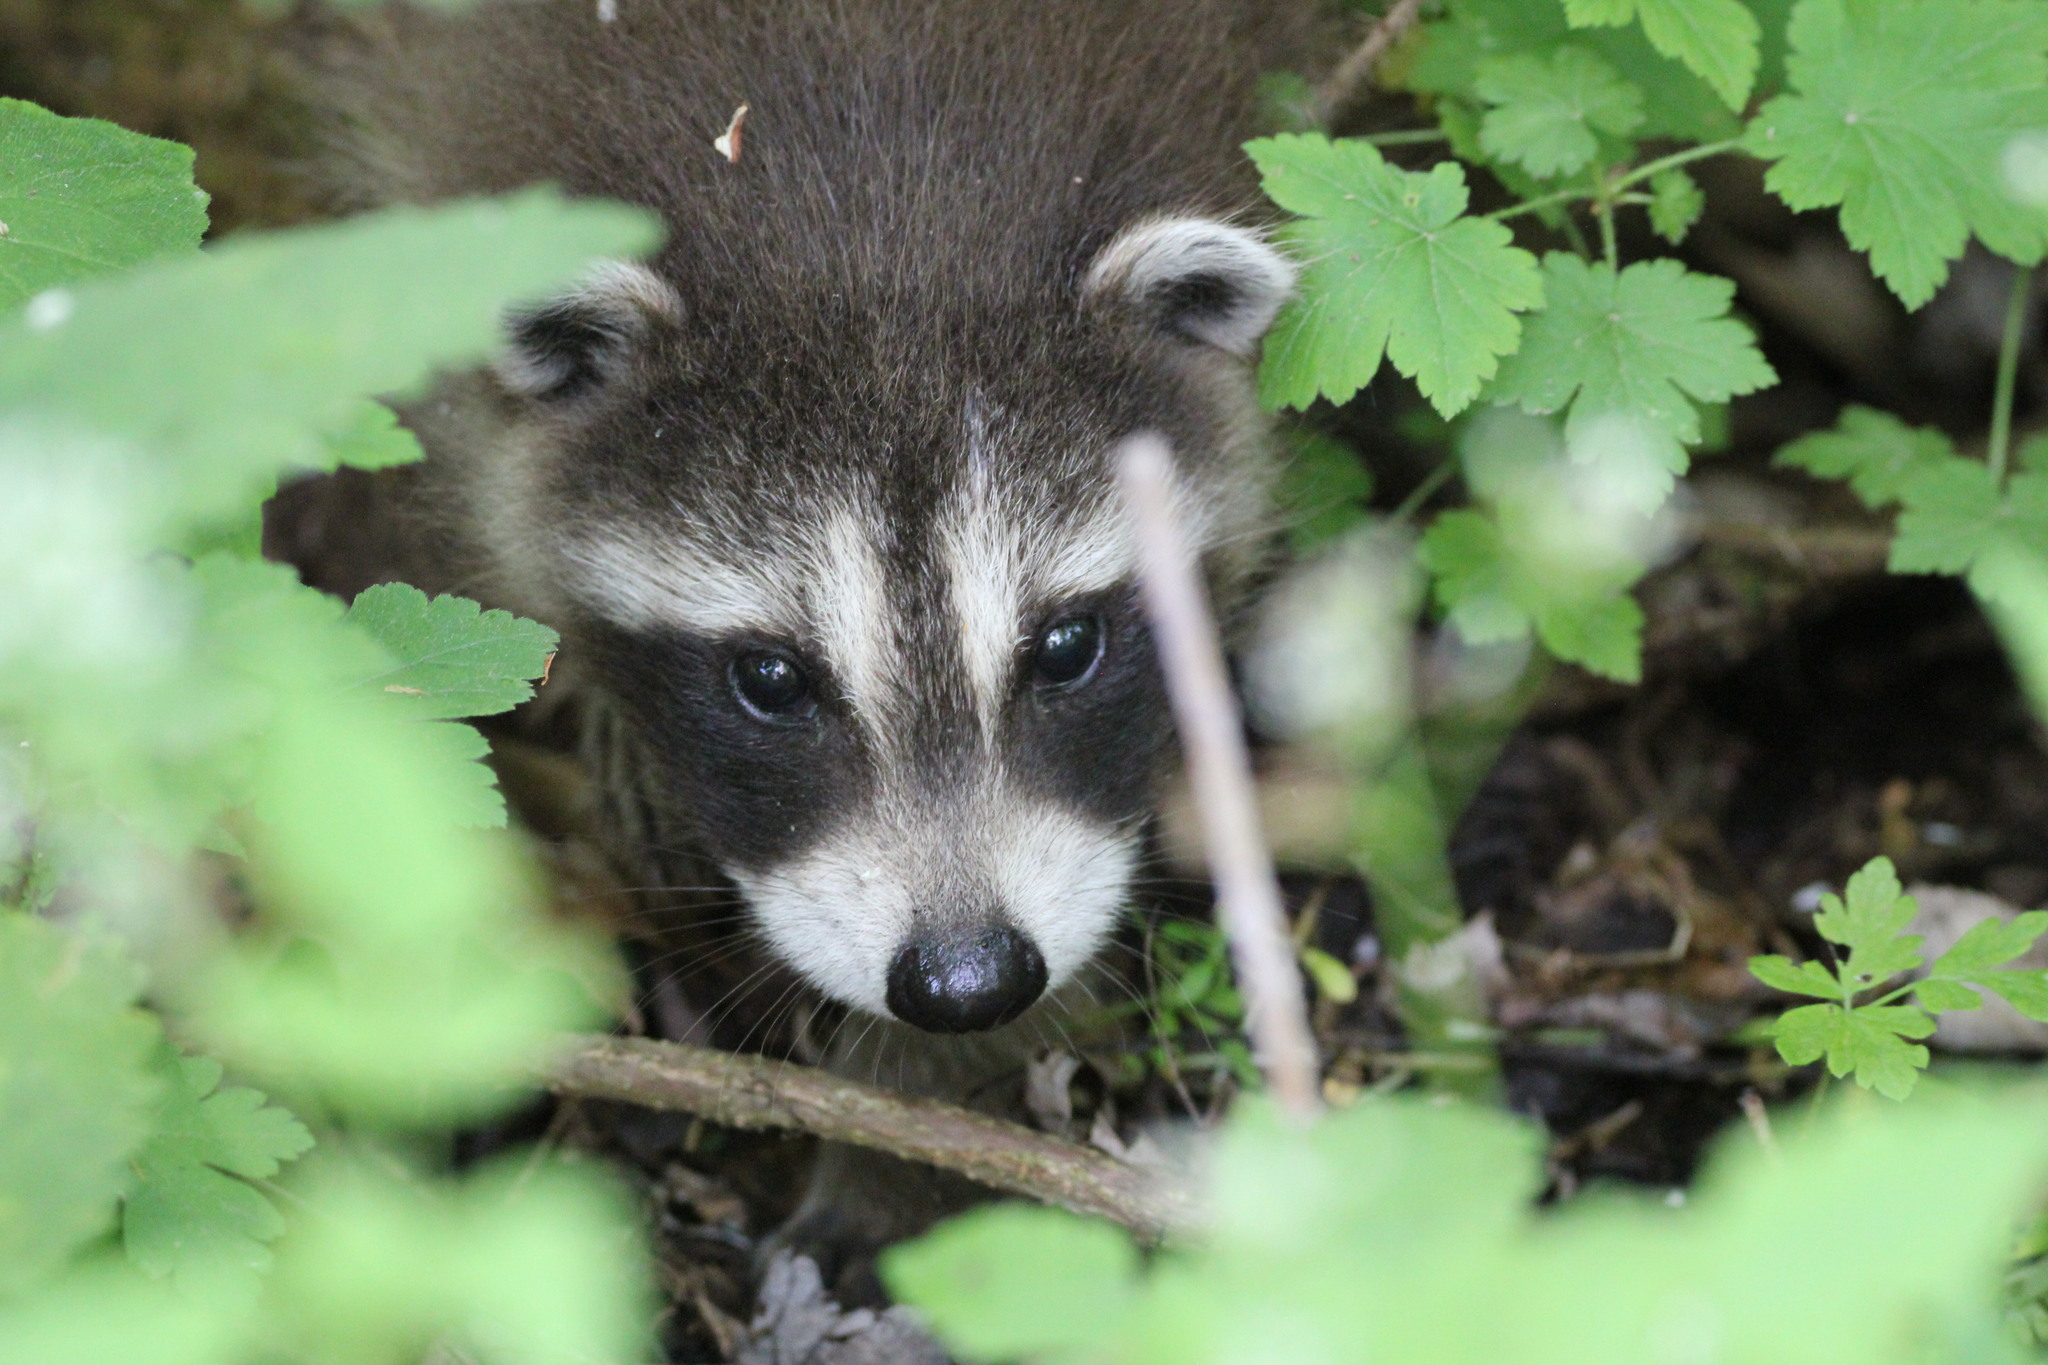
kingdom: Animalia
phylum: Chordata
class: Mammalia
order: Carnivora
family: Procyonidae
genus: Procyon
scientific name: Procyon lotor
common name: Raccoon
